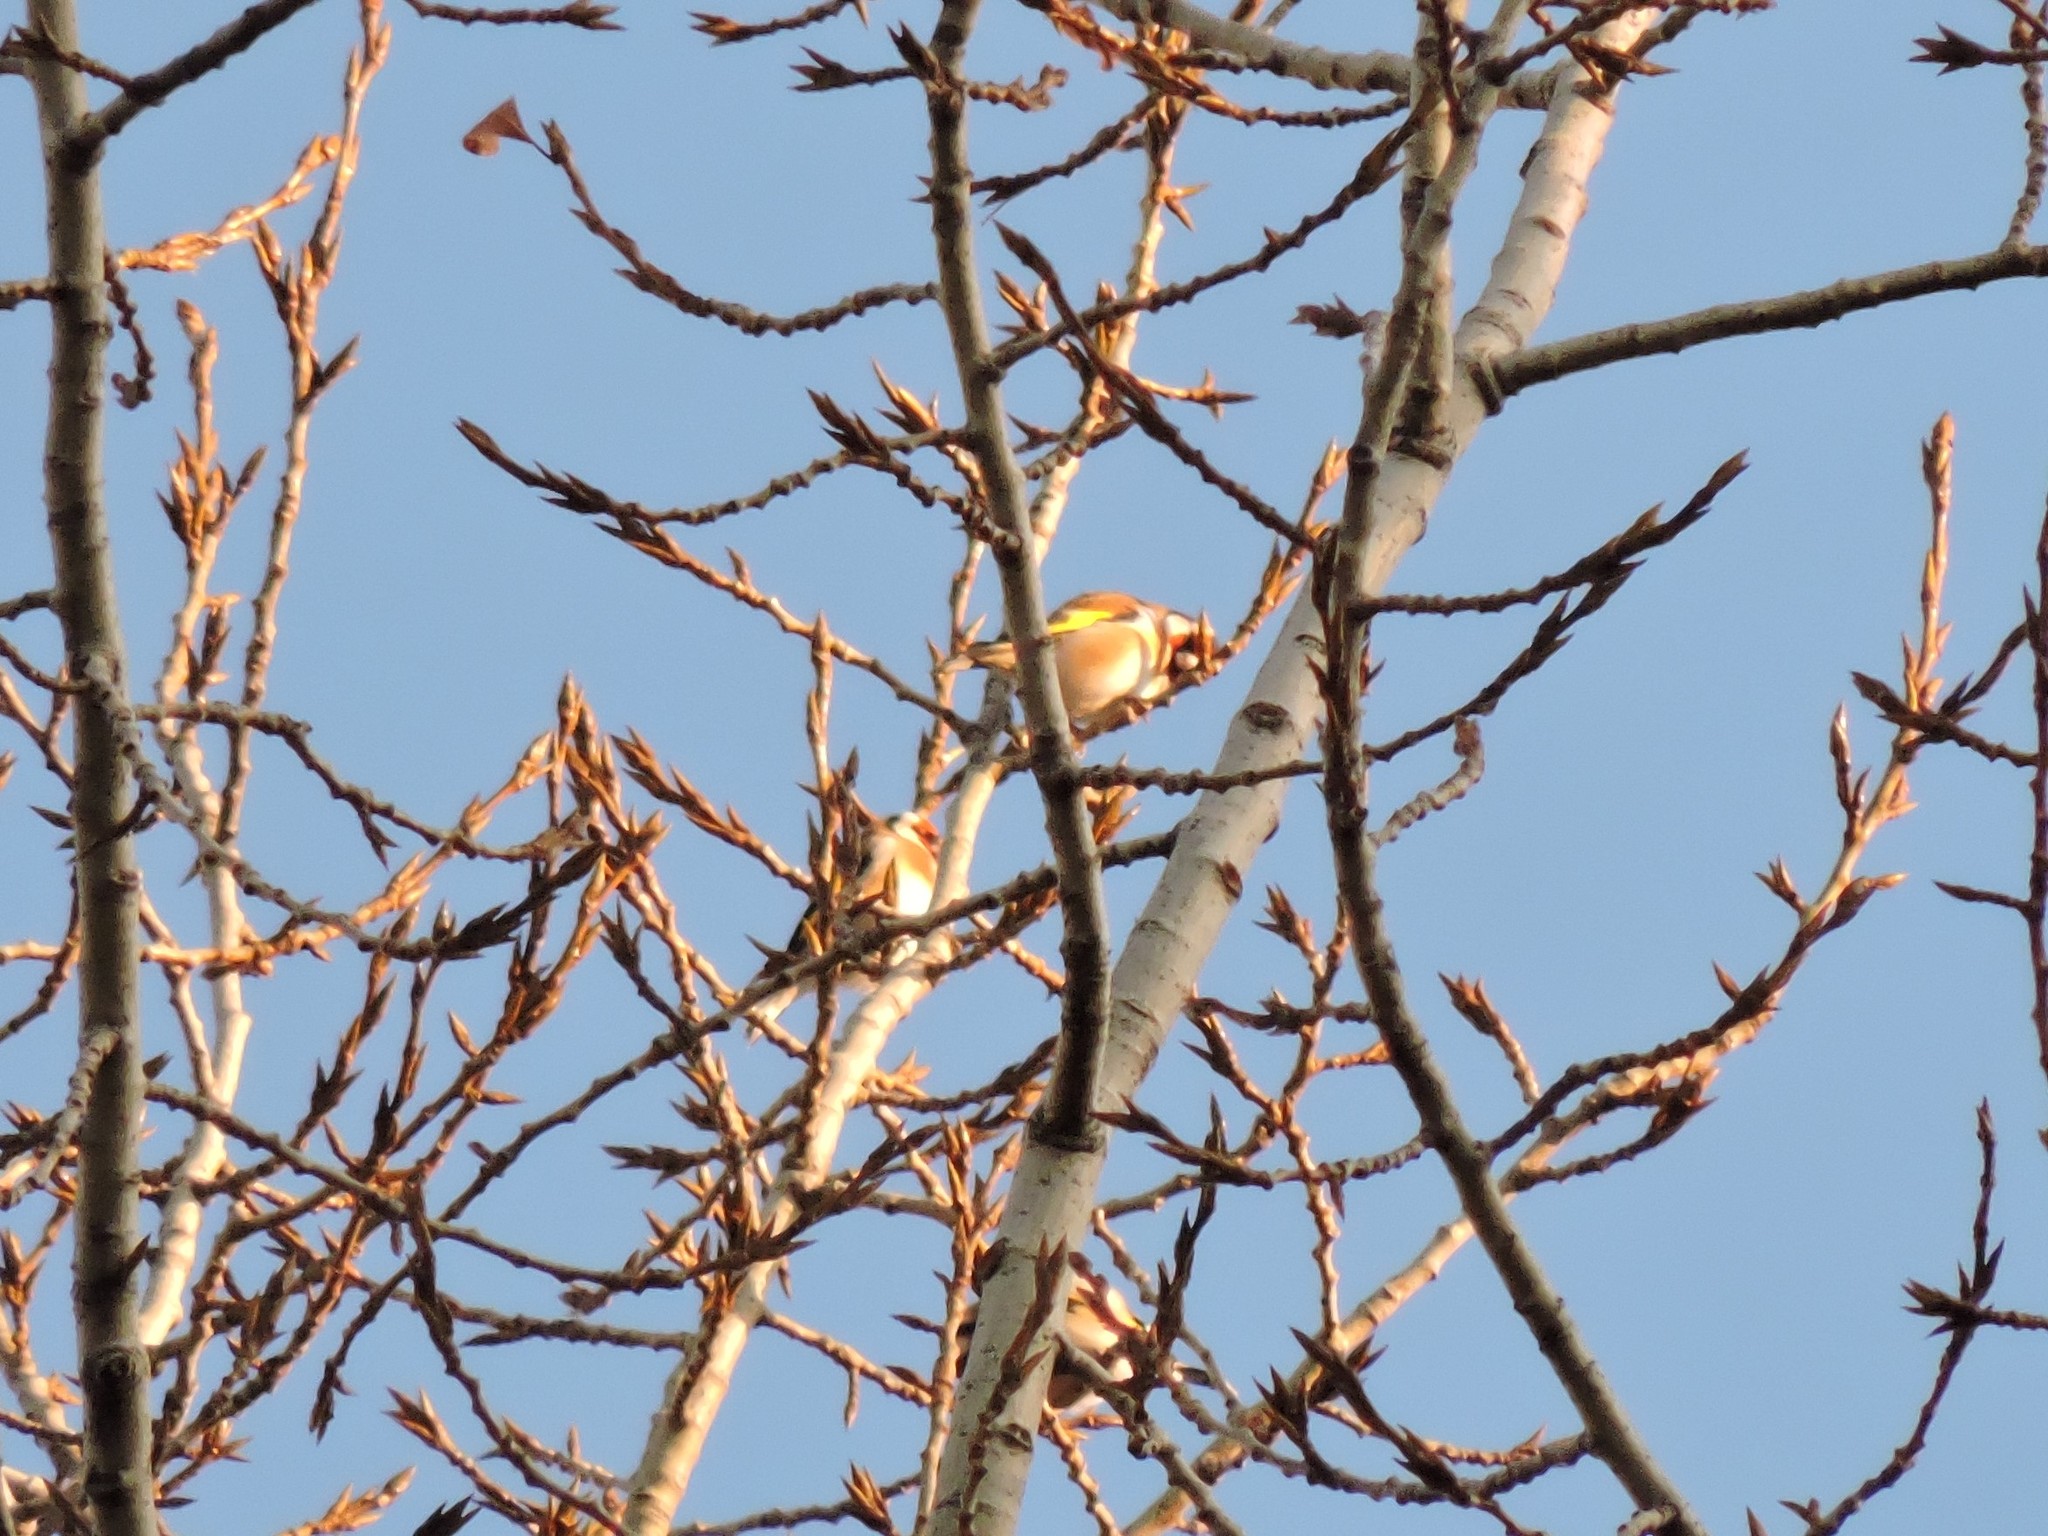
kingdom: Animalia
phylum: Chordata
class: Aves
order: Passeriformes
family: Fringillidae
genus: Carduelis
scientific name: Carduelis carduelis
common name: European goldfinch
